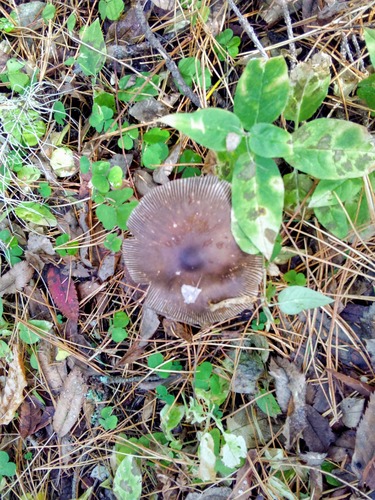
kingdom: Fungi
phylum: Basidiomycota
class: Agaricomycetes
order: Agaricales
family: Amanitaceae
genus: Amanita
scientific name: Amanita battarrae
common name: Banded amanita
